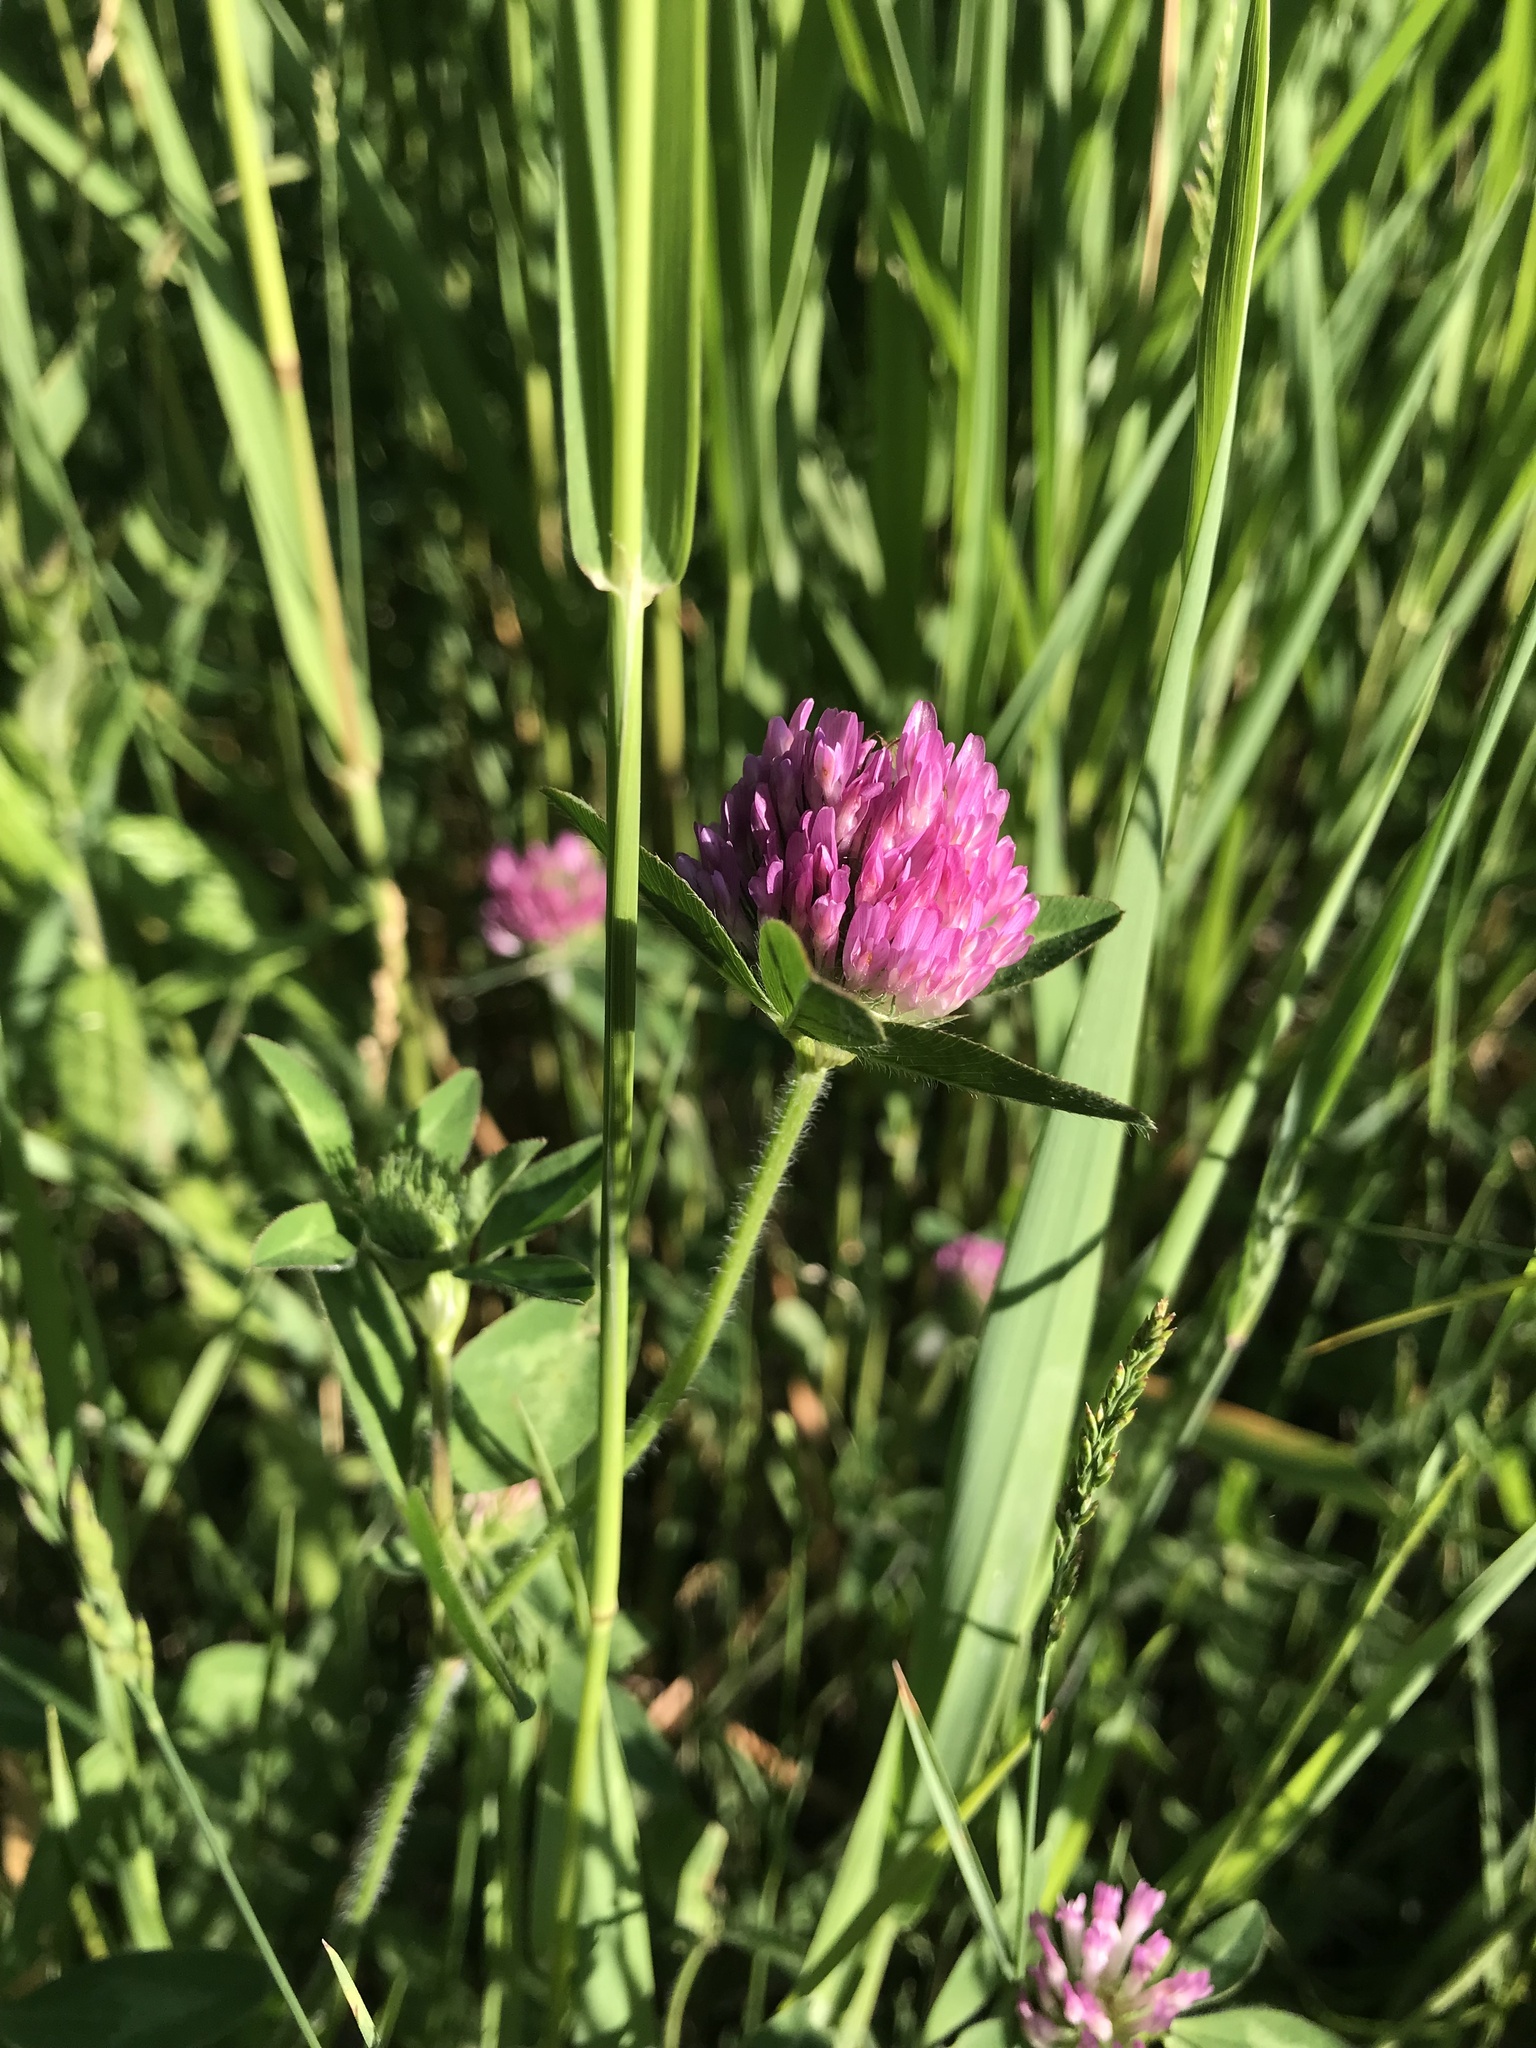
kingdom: Plantae
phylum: Tracheophyta
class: Magnoliopsida
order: Fabales
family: Fabaceae
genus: Trifolium
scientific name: Trifolium pratense
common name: Red clover
